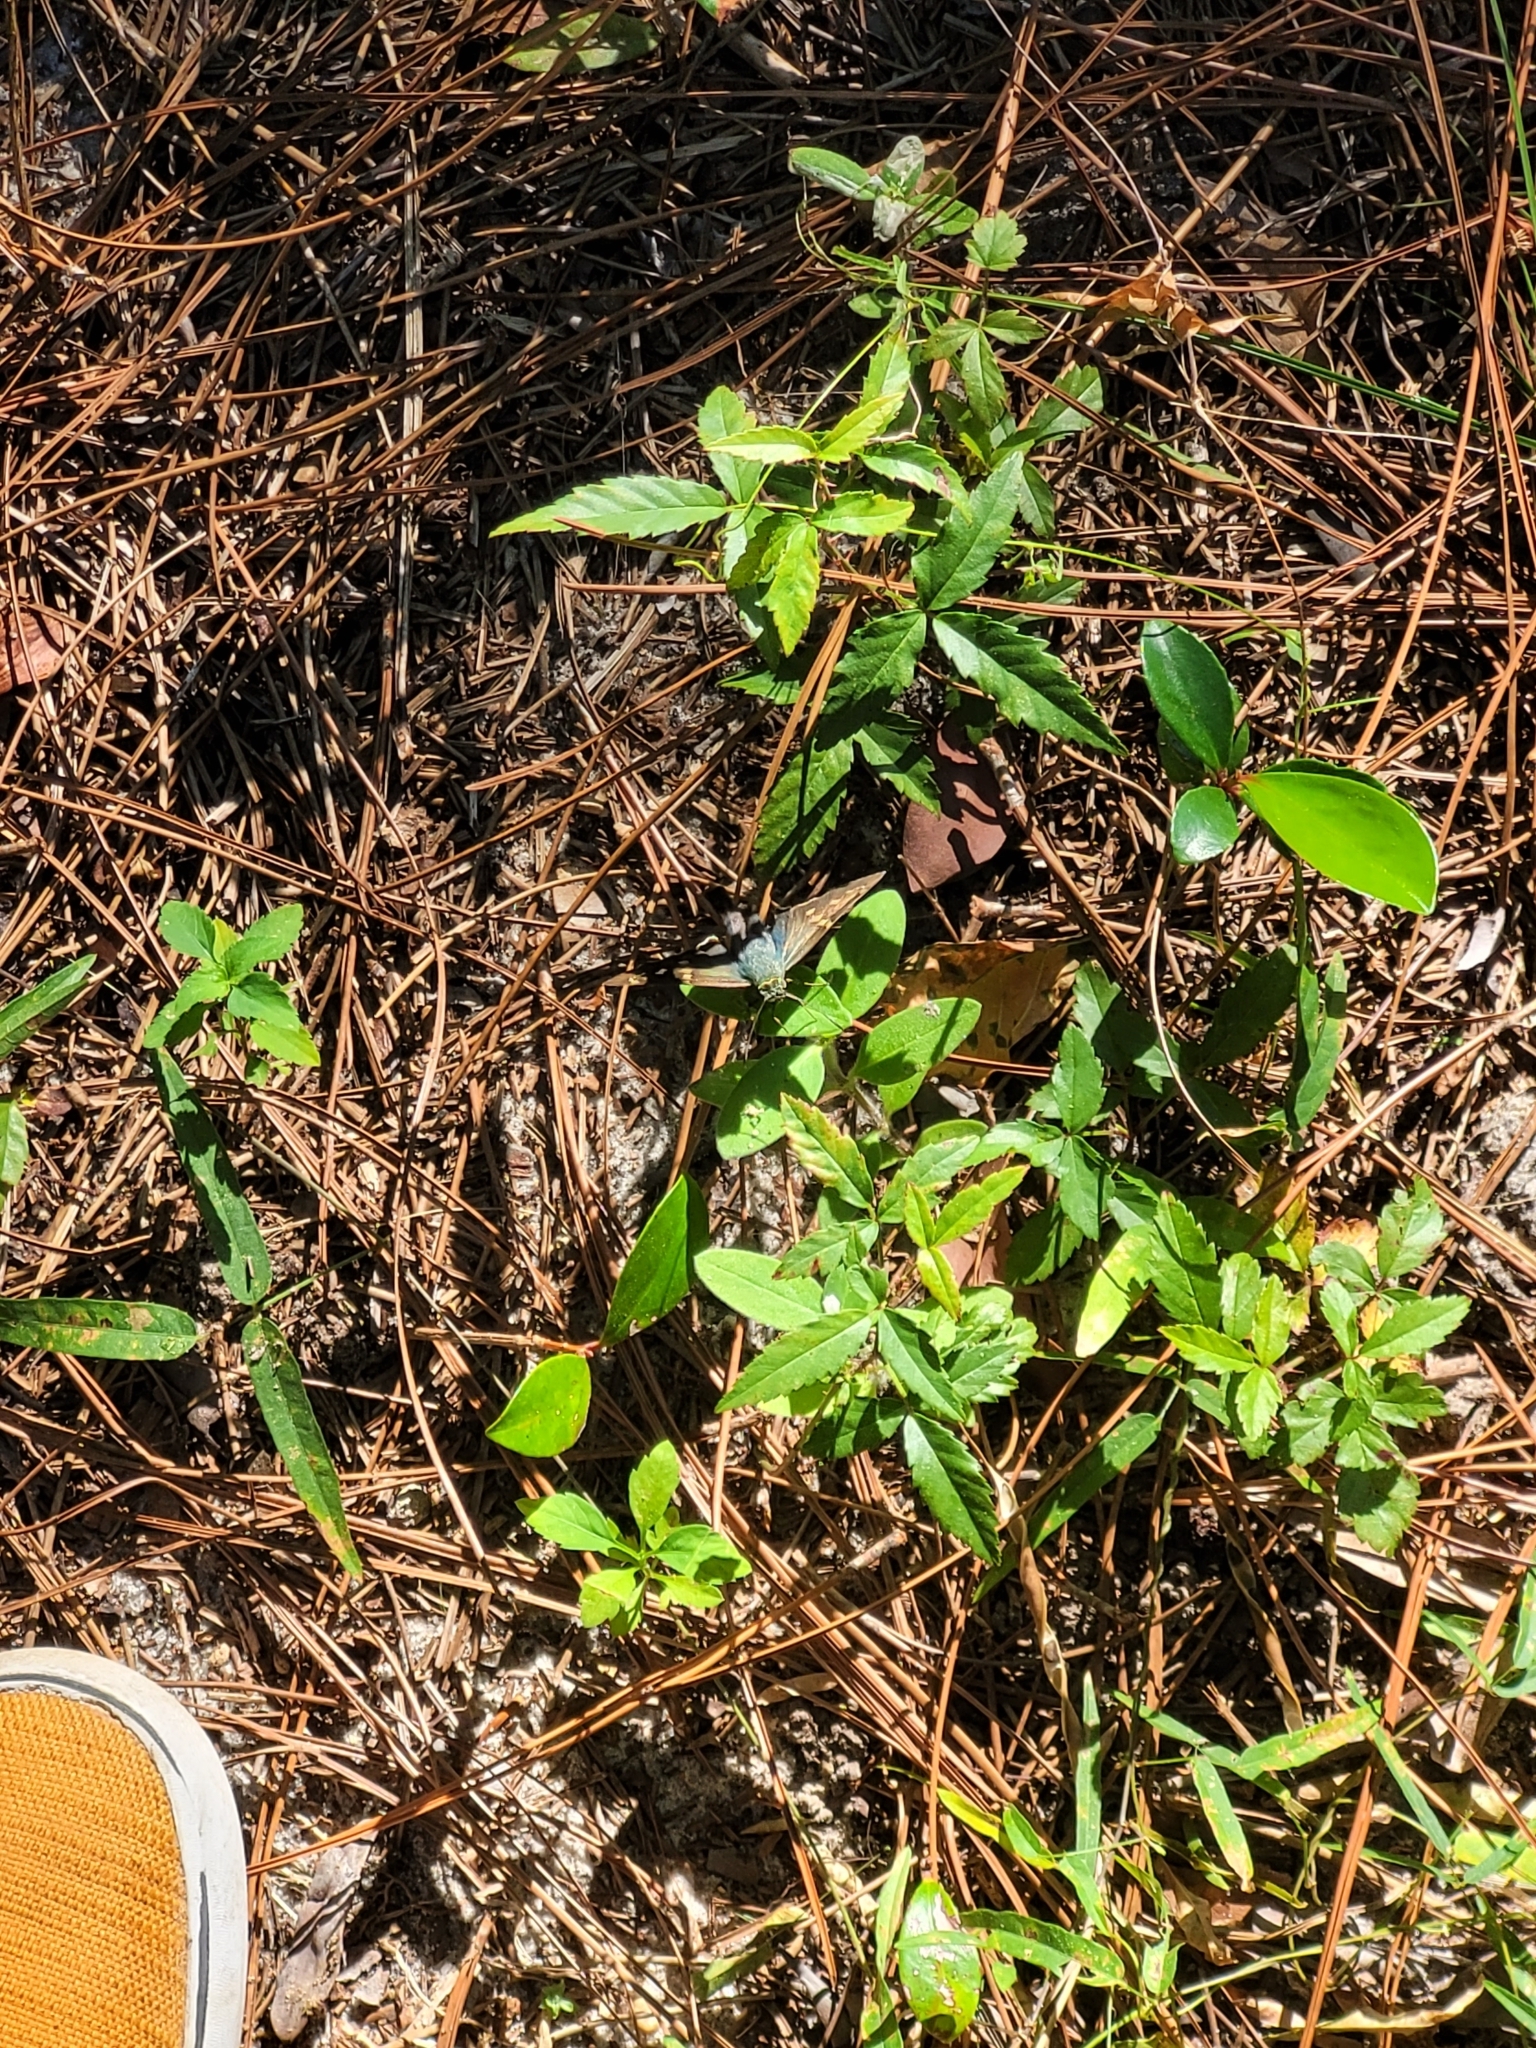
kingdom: Animalia
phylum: Arthropoda
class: Insecta
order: Lepidoptera
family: Hesperiidae
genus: Urbanus
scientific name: Urbanus proteus
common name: Long-tailed skipper
